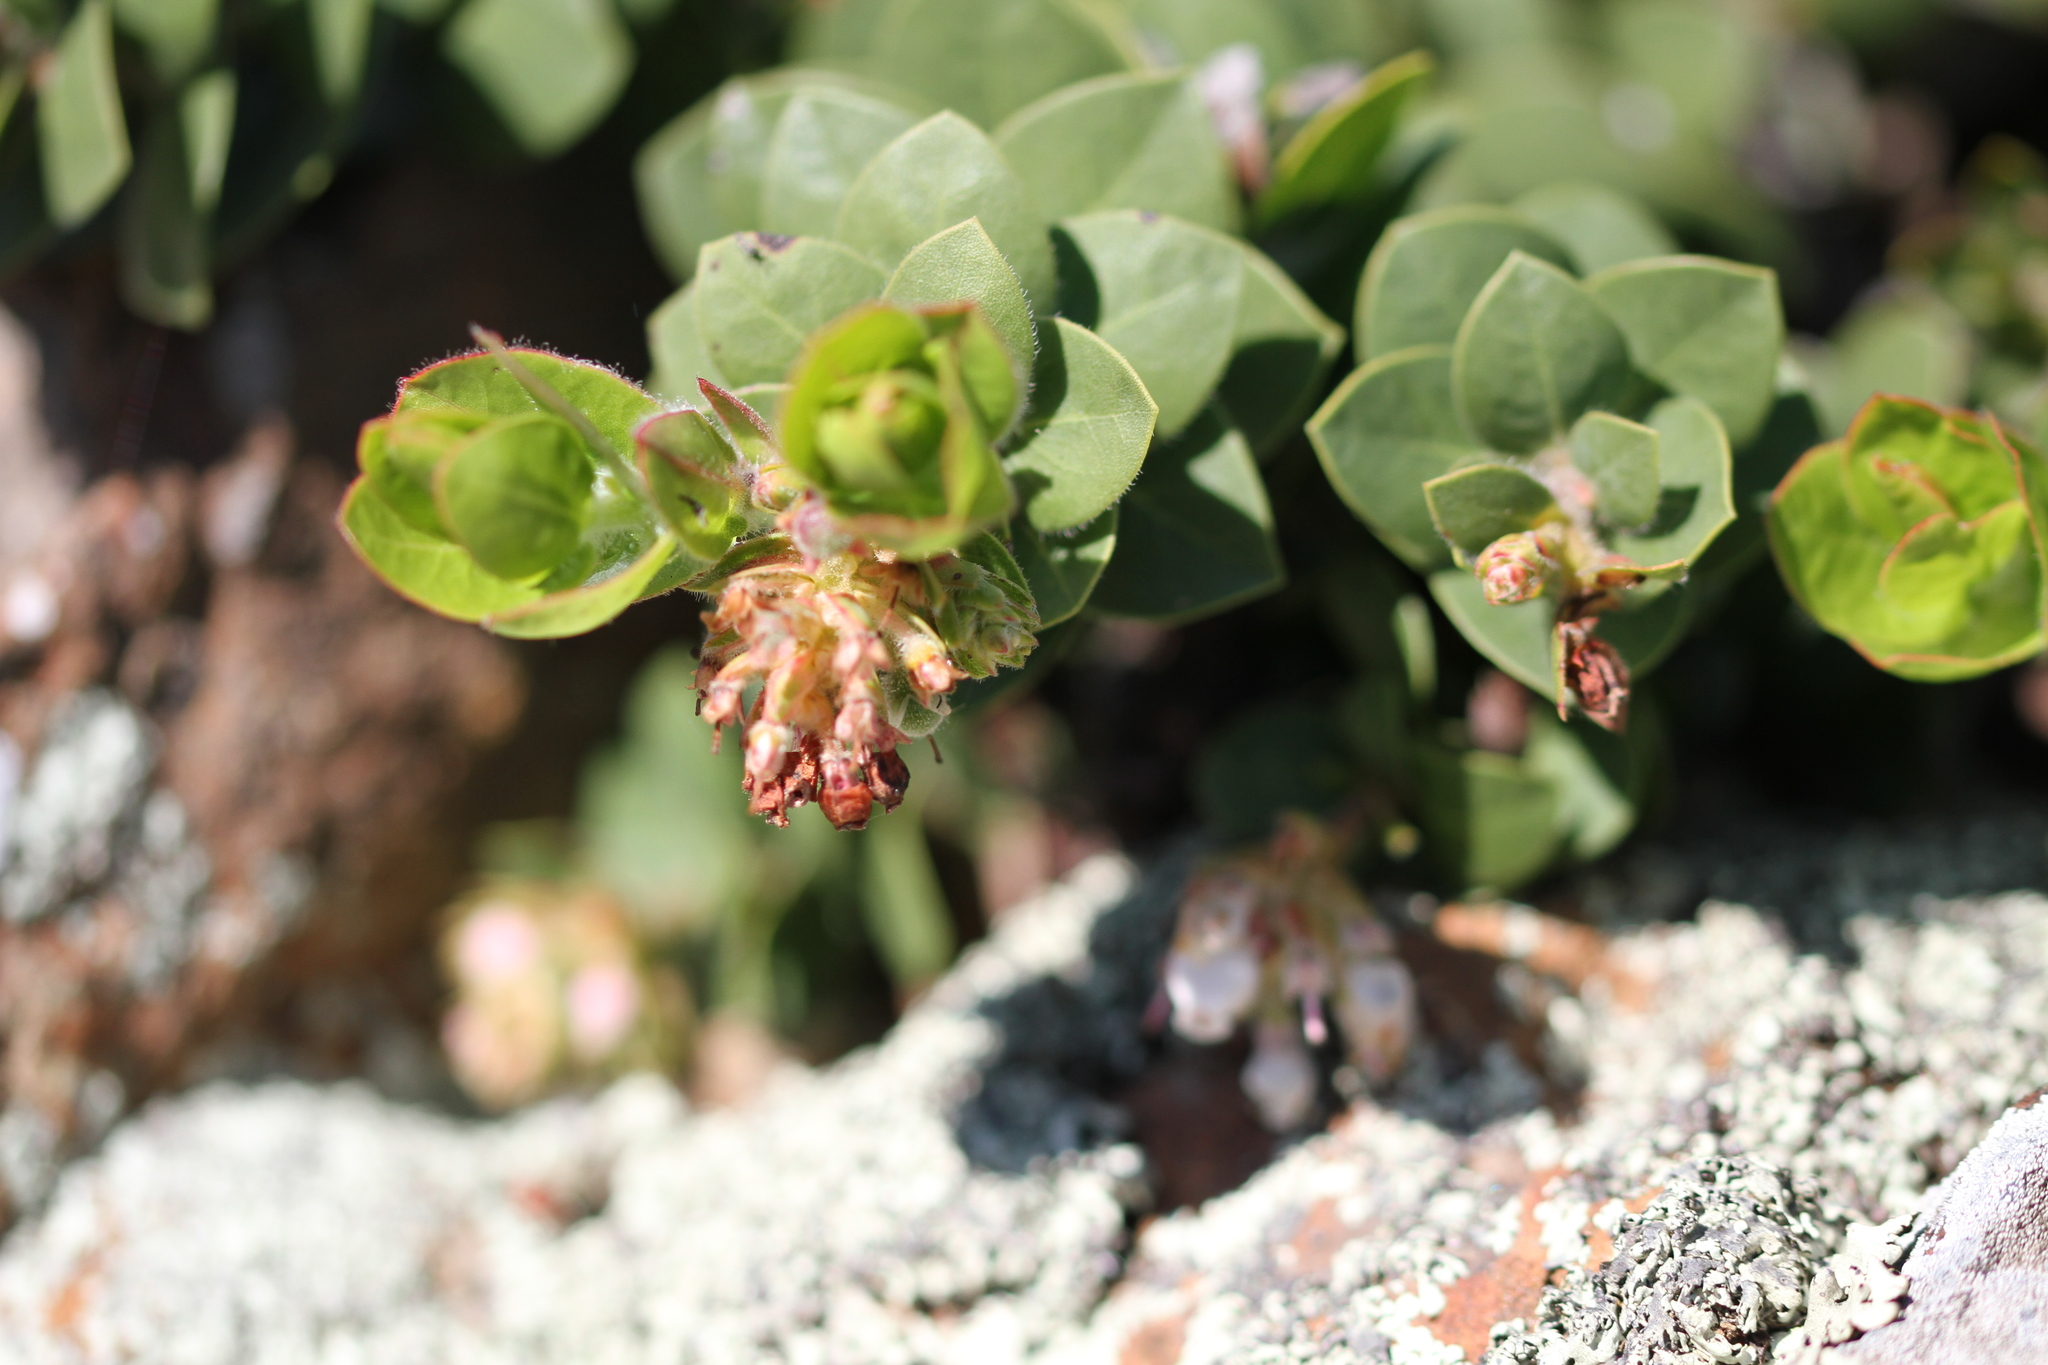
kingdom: Plantae
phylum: Tracheophyta
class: Magnoliopsida
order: Ericales
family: Ericaceae
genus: Arctostaphylos
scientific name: Arctostaphylos imbricata
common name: San bruno mountain manzanita
